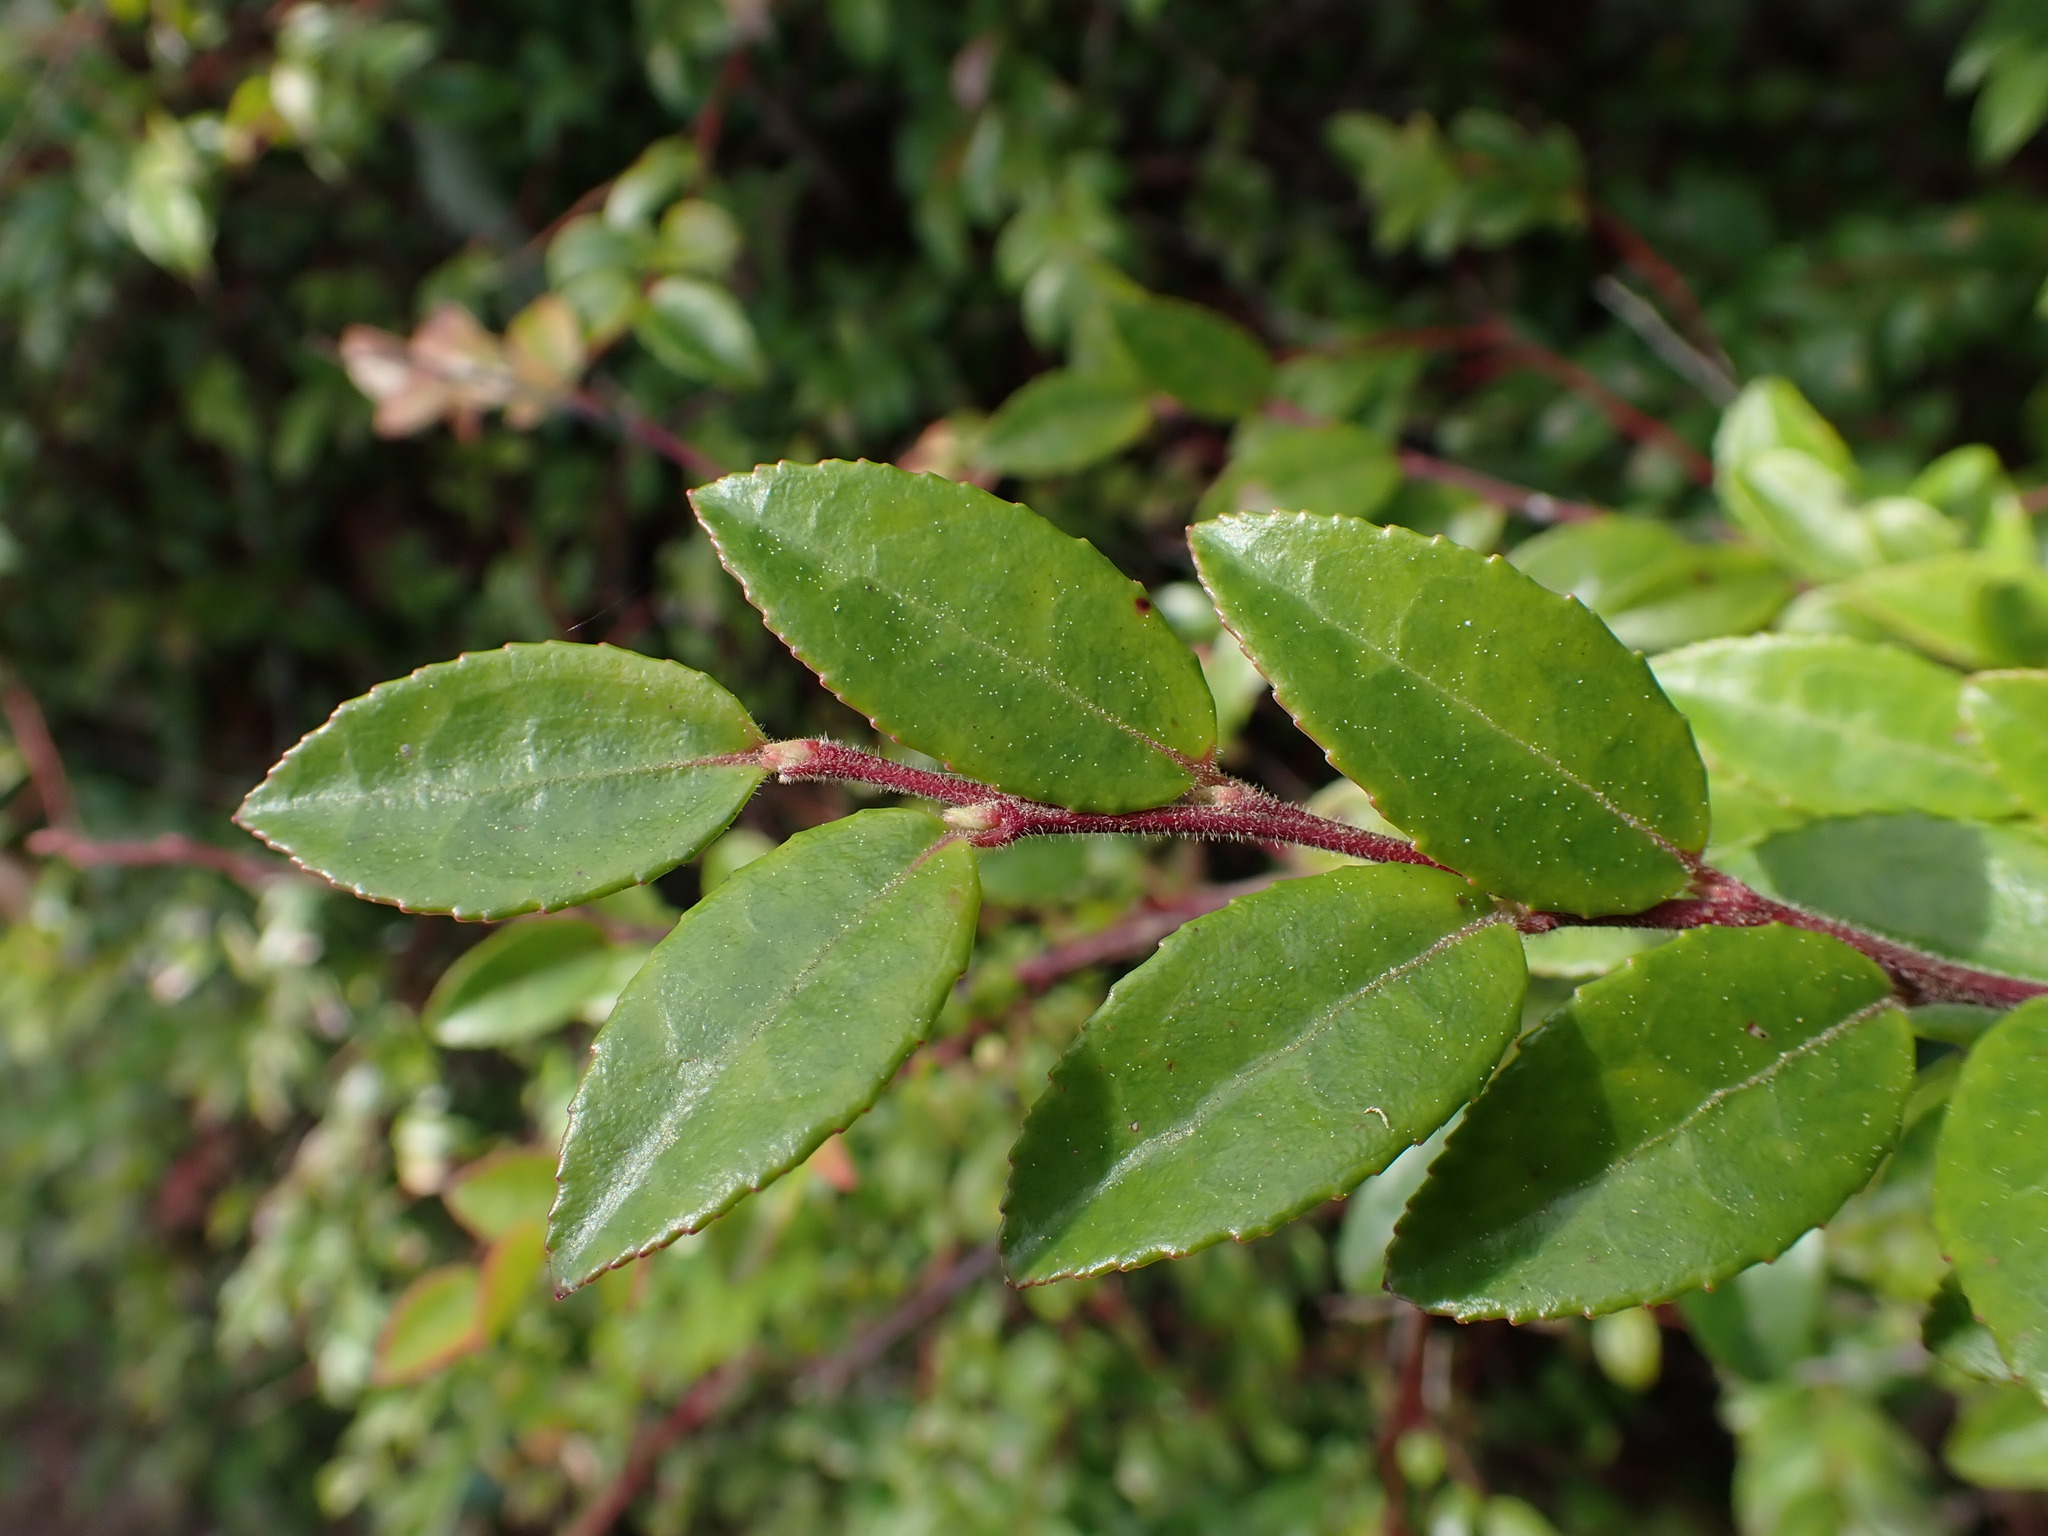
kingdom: Plantae
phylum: Tracheophyta
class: Magnoliopsida
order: Ericales
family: Ericaceae
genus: Vaccinium
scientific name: Vaccinium ovatum
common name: California-huckleberry
